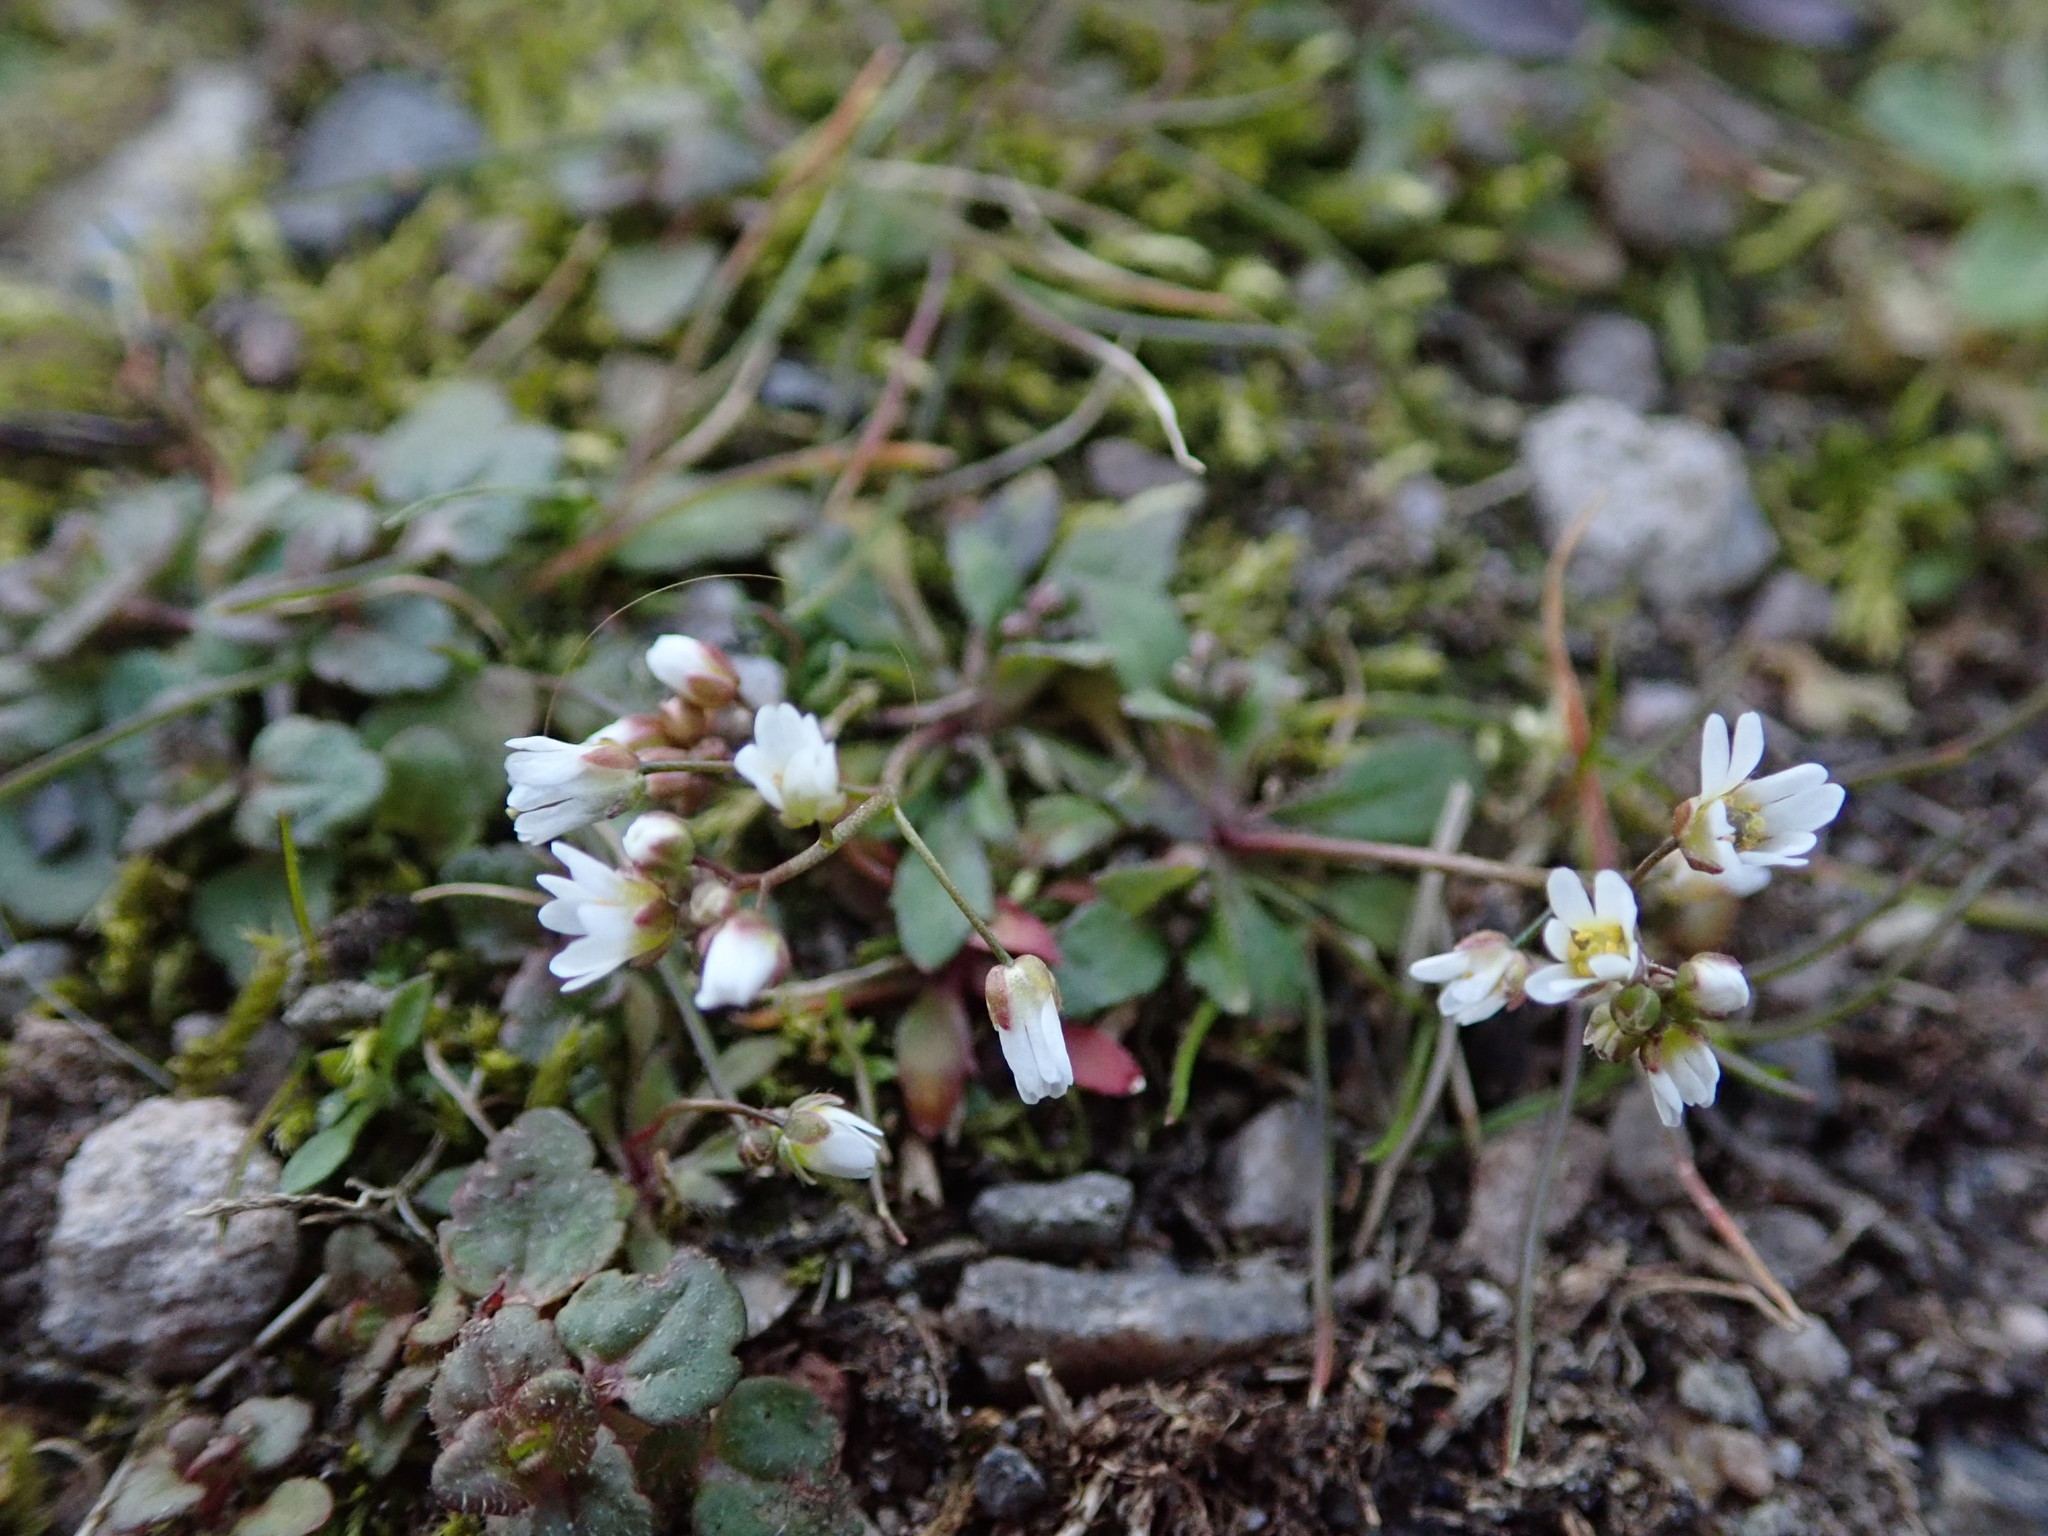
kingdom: Plantae
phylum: Tracheophyta
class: Magnoliopsida
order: Brassicales
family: Brassicaceae
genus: Draba
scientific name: Draba verna
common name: Spring draba
